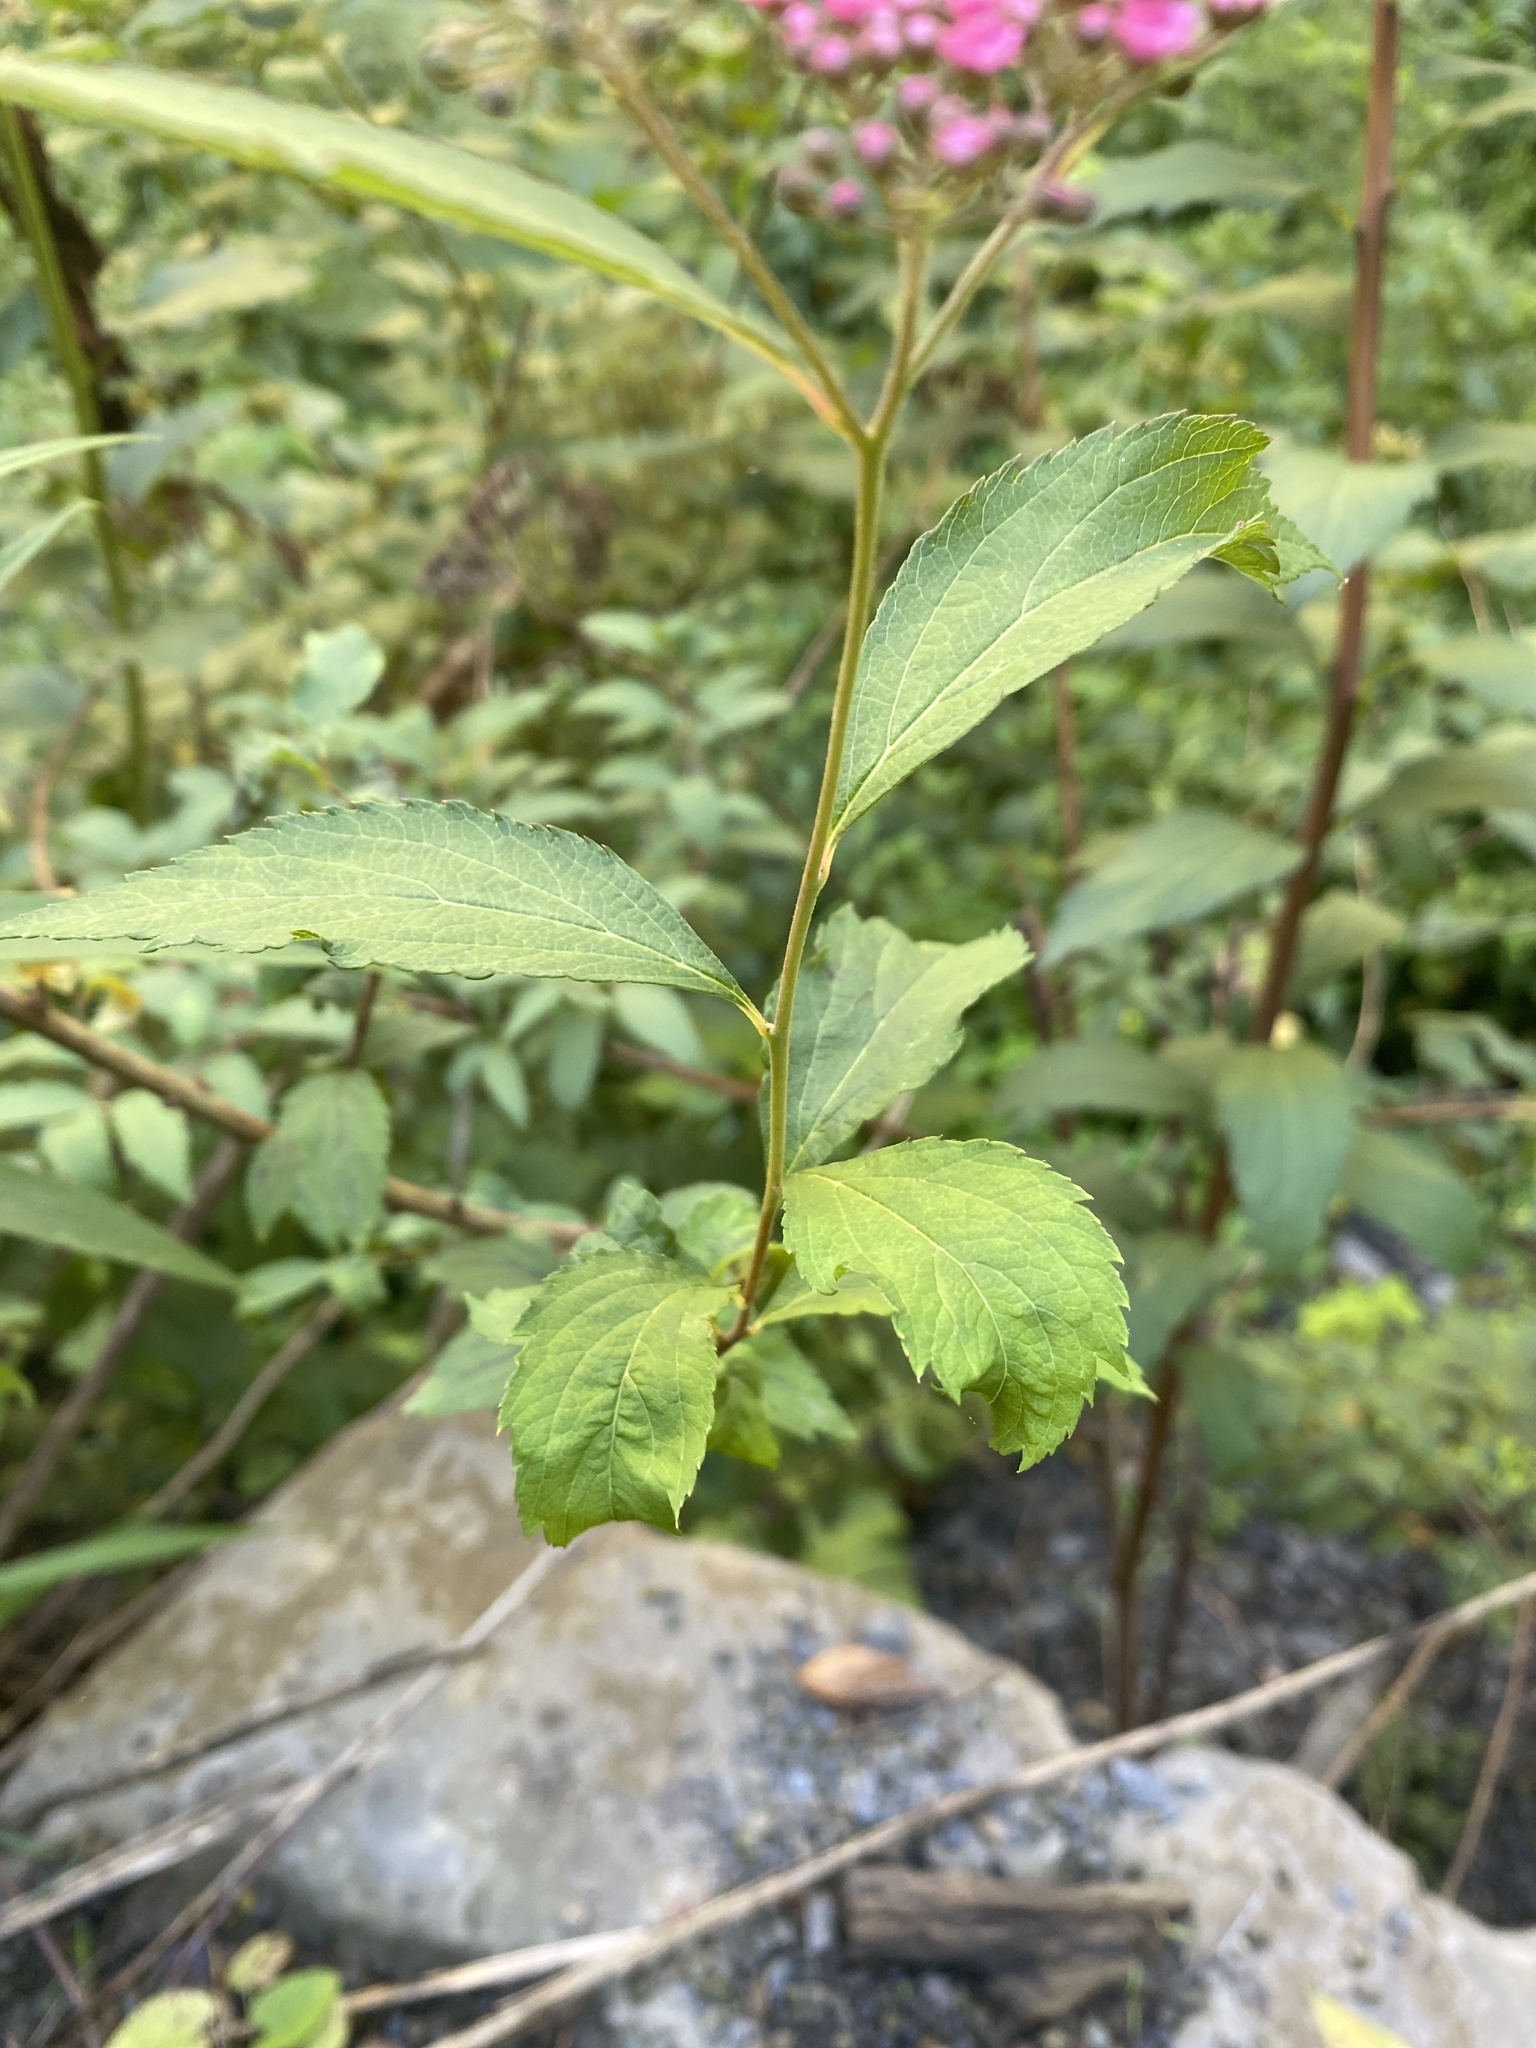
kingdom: Plantae
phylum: Tracheophyta
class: Magnoliopsida
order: Rosales
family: Rosaceae
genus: Spiraea
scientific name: Spiraea japonica
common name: Japanese spiraea
